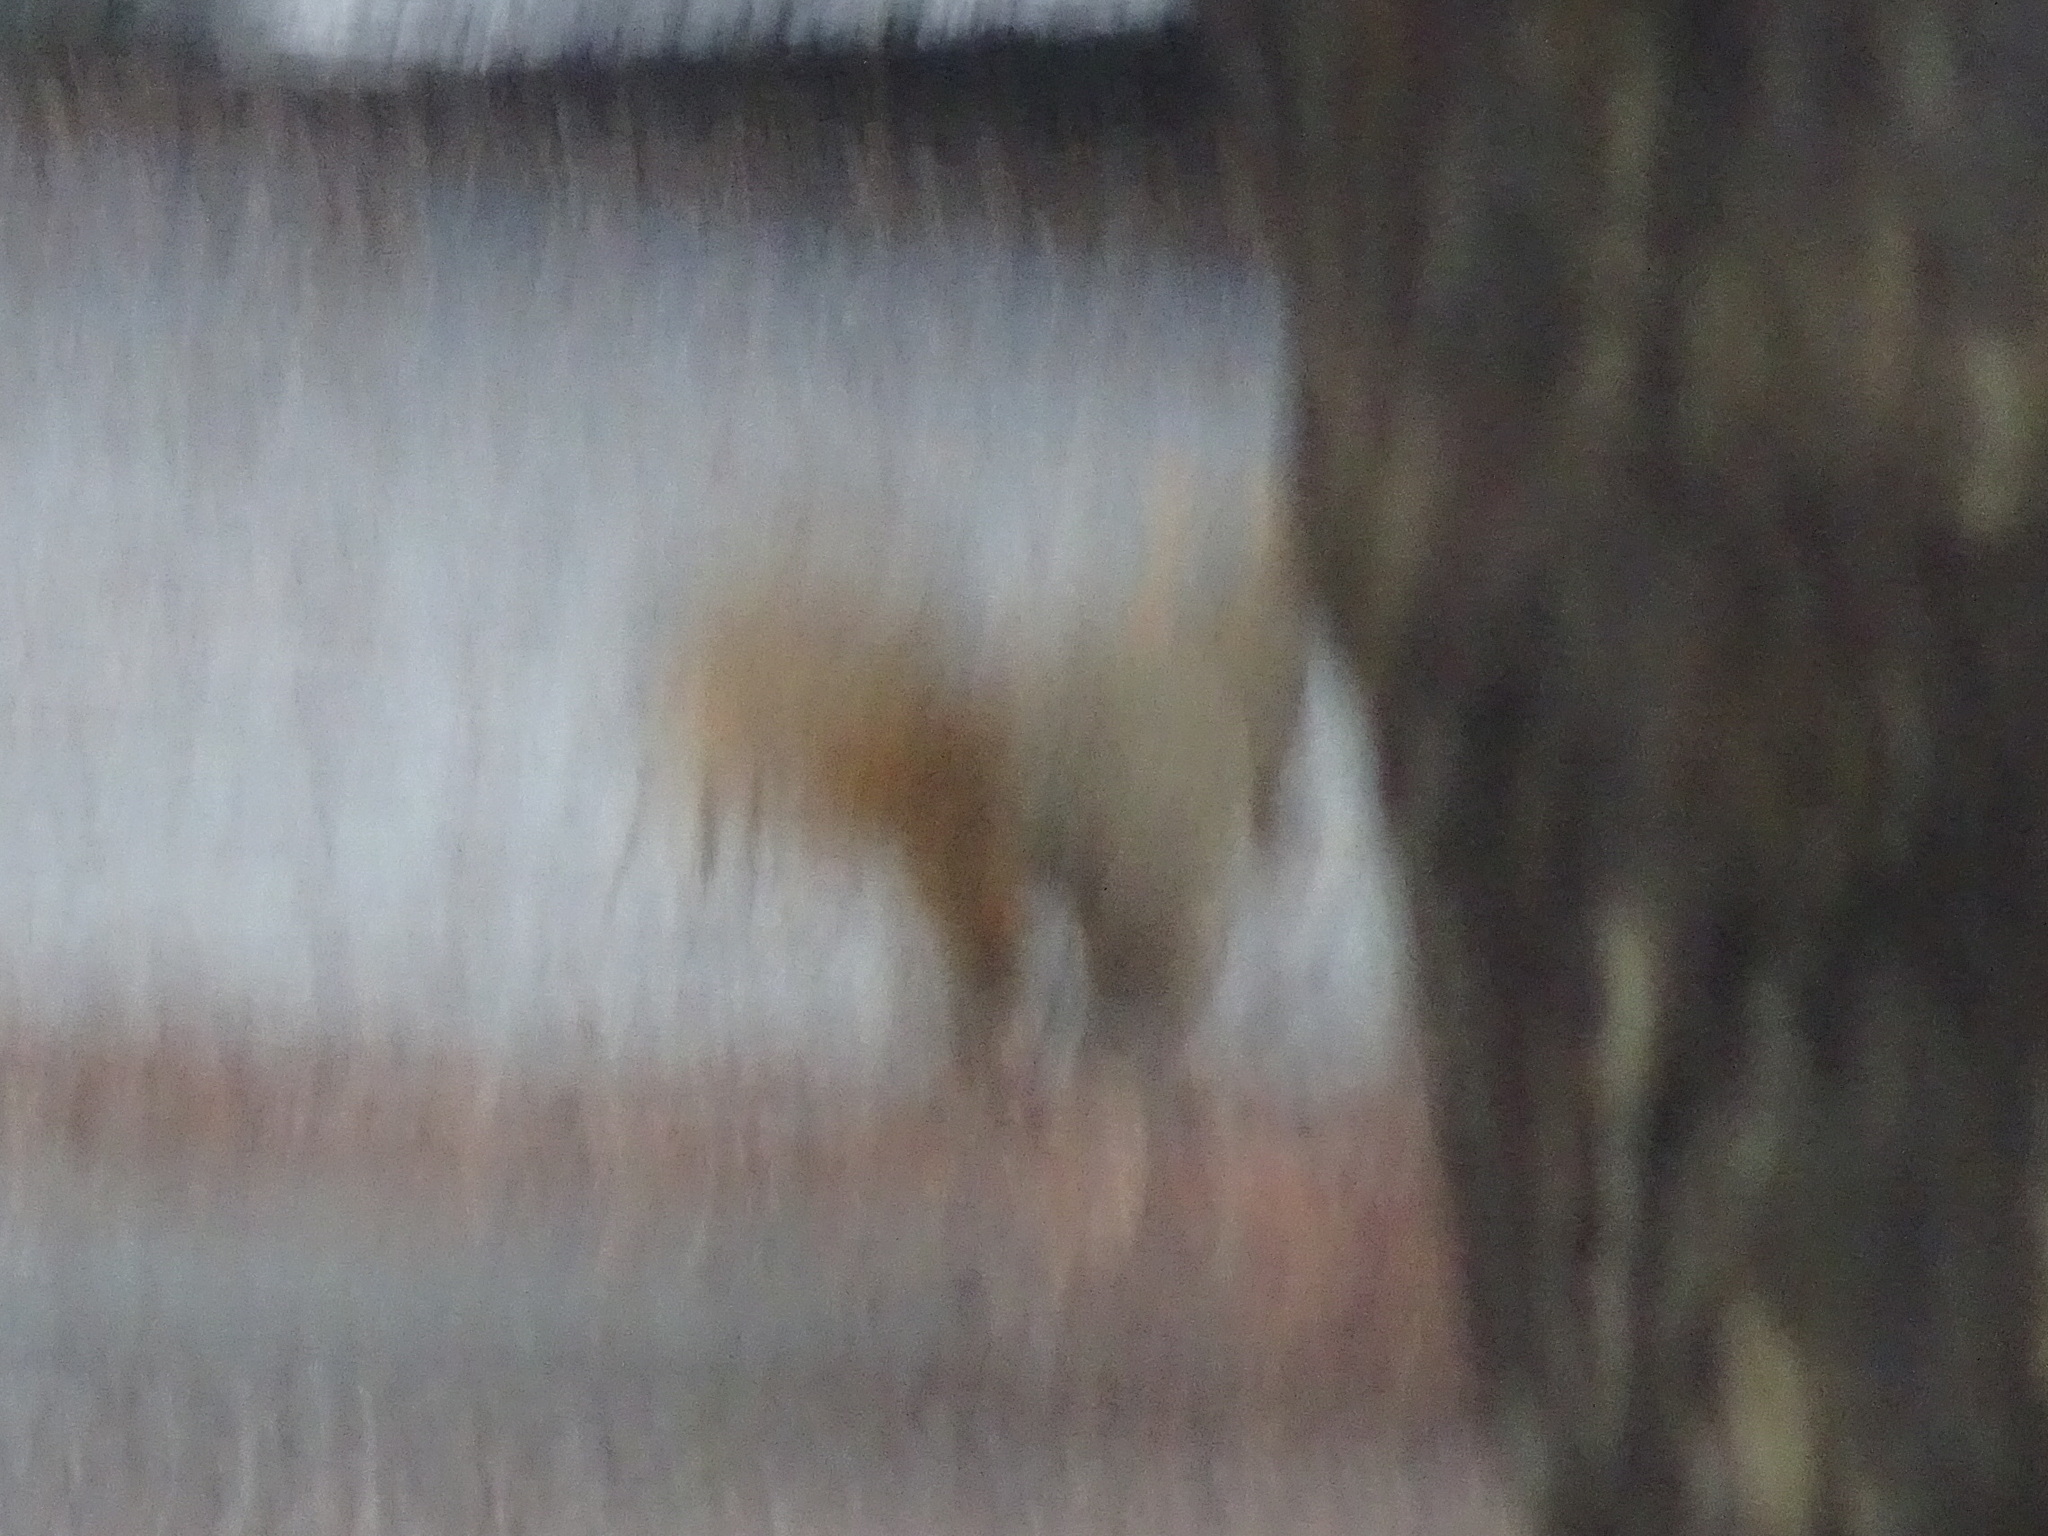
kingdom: Animalia
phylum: Chordata
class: Mammalia
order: Rodentia
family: Sciuridae
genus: Sciurus
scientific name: Sciurus niger
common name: Fox squirrel
